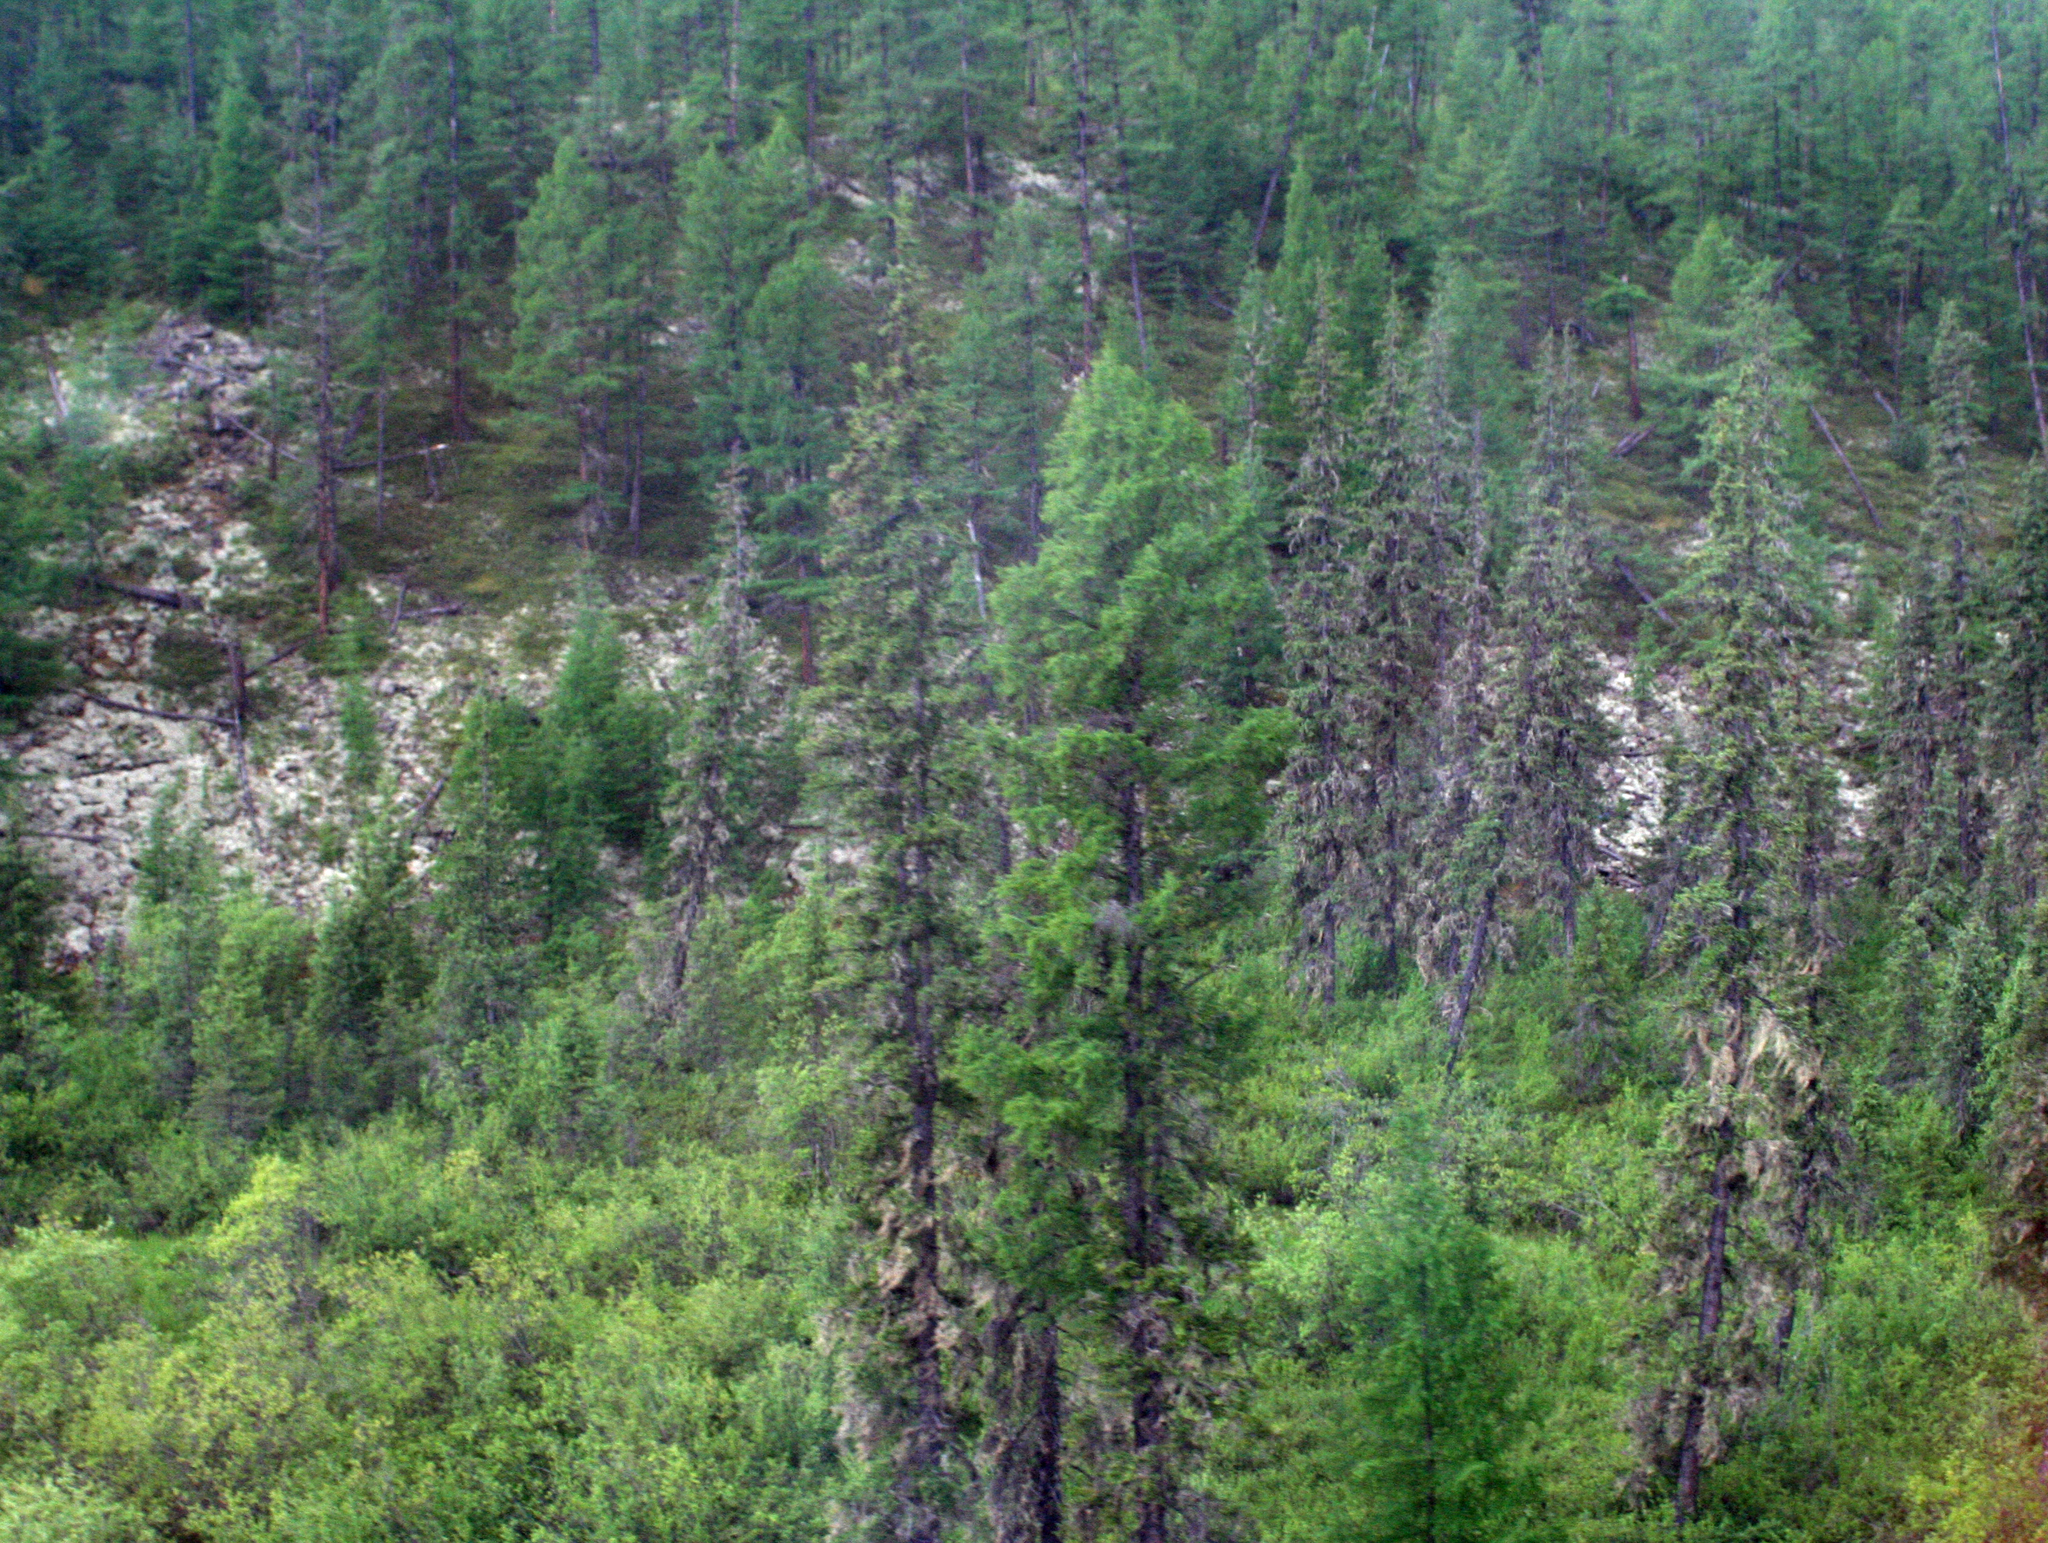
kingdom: Plantae
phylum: Tracheophyta
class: Pinopsida
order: Pinales
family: Pinaceae
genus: Picea
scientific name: Picea obovata
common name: Siberian spruce
